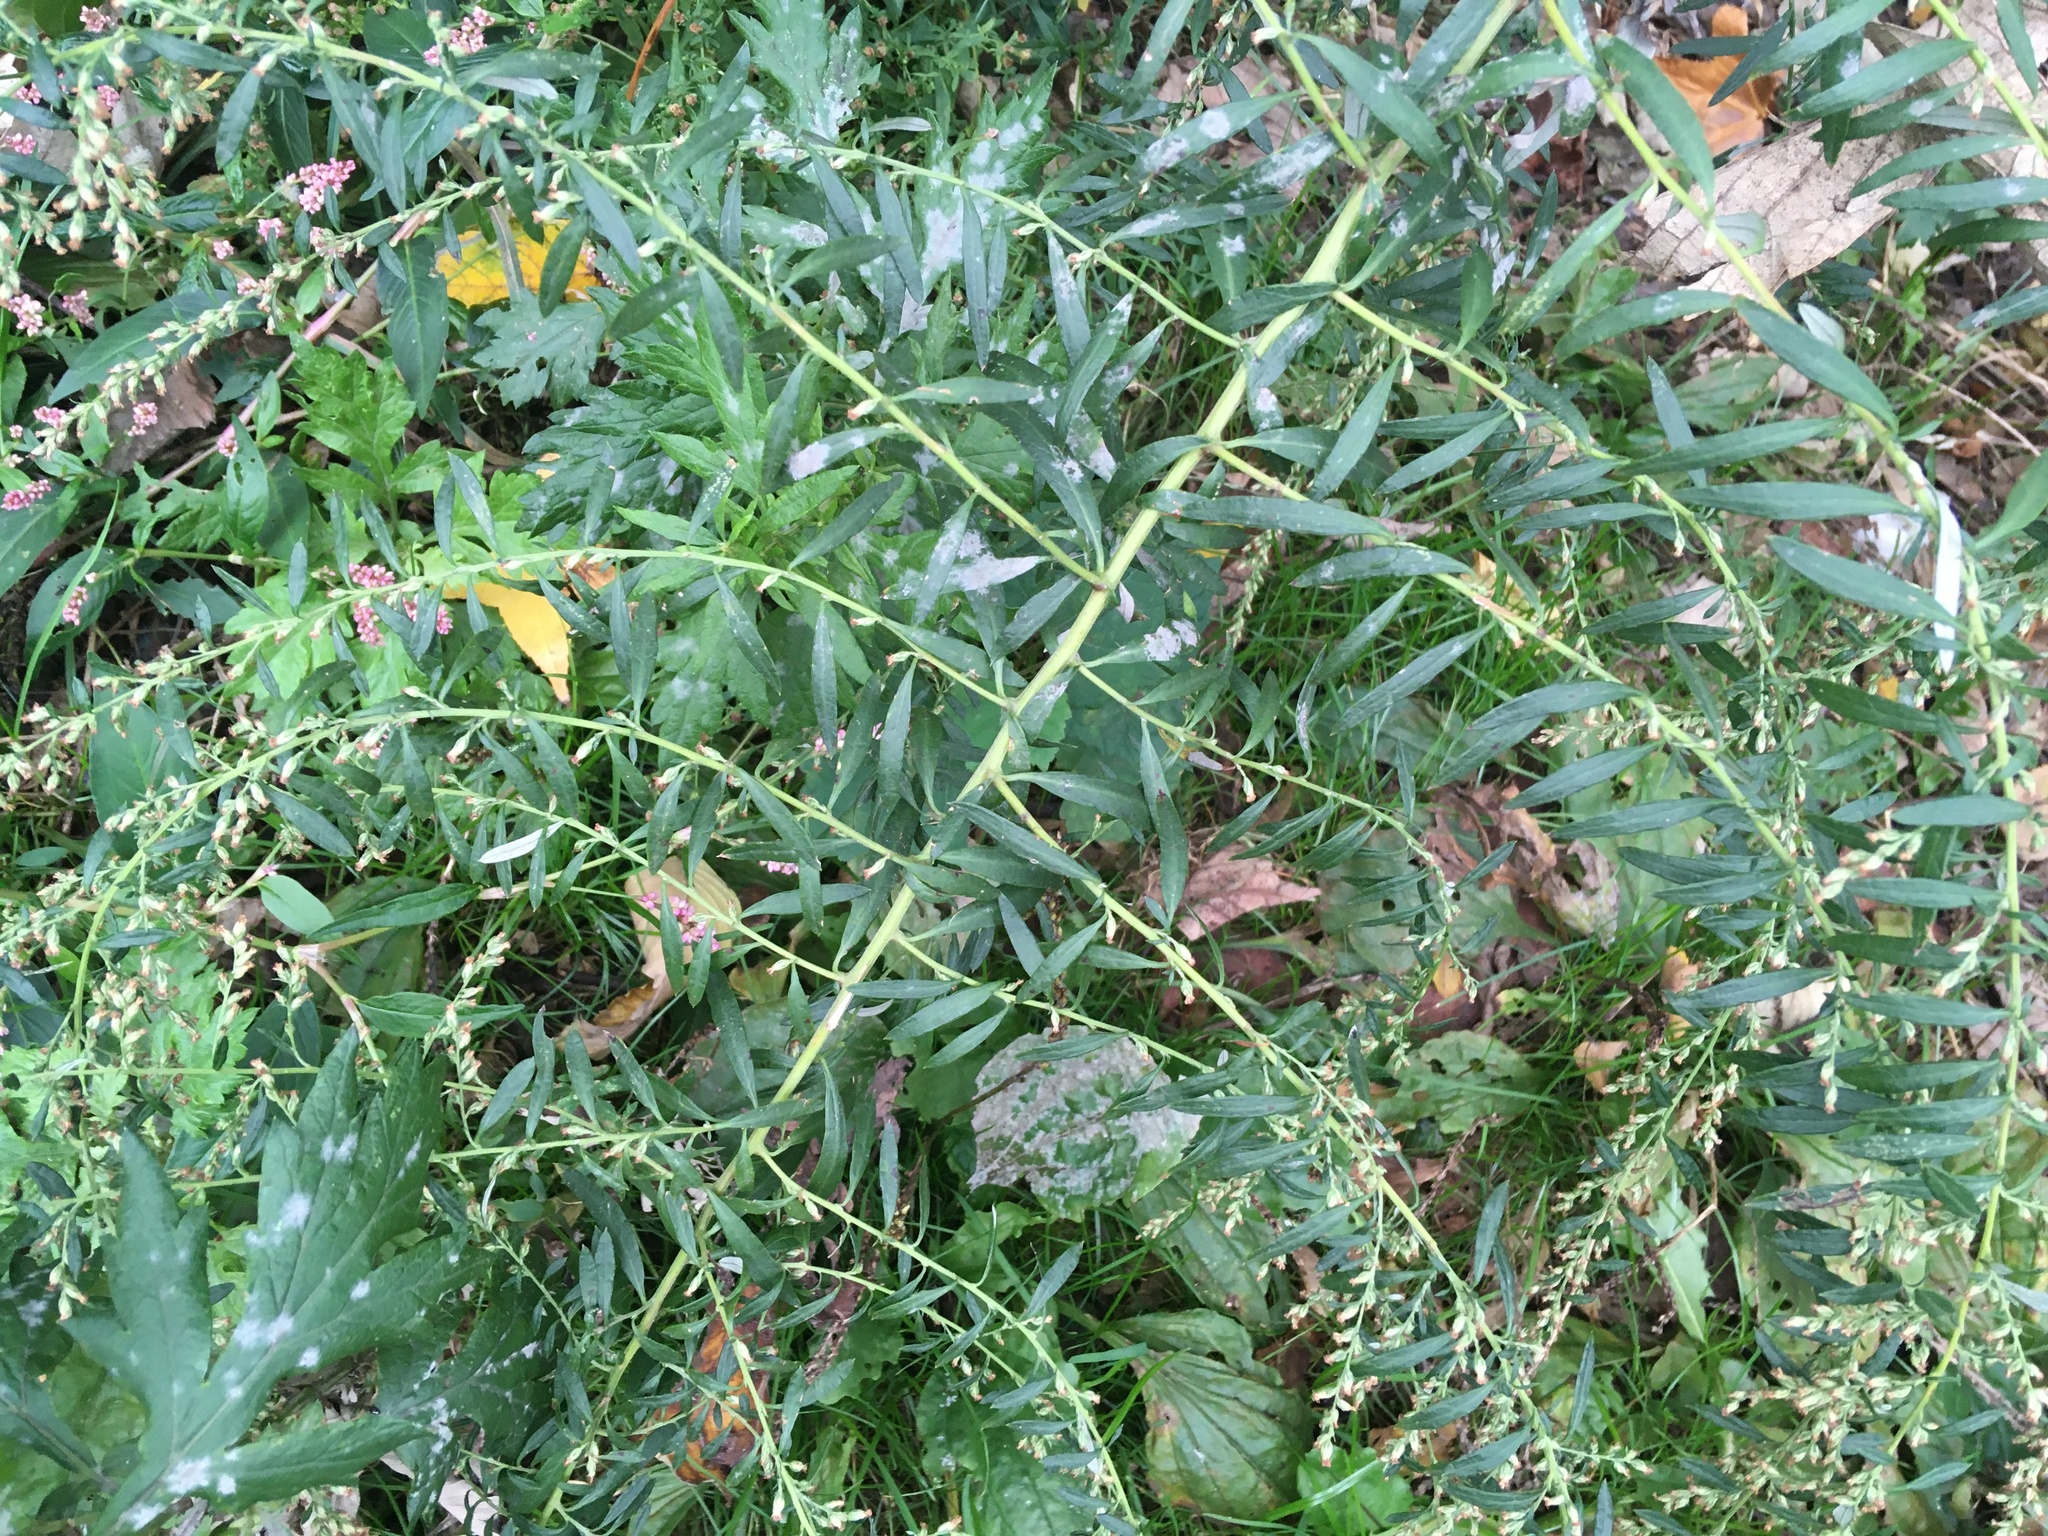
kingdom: Plantae
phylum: Tracheophyta
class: Magnoliopsida
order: Asterales
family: Asteraceae
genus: Artemisia
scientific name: Artemisia vulgaris
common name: Mugwort
